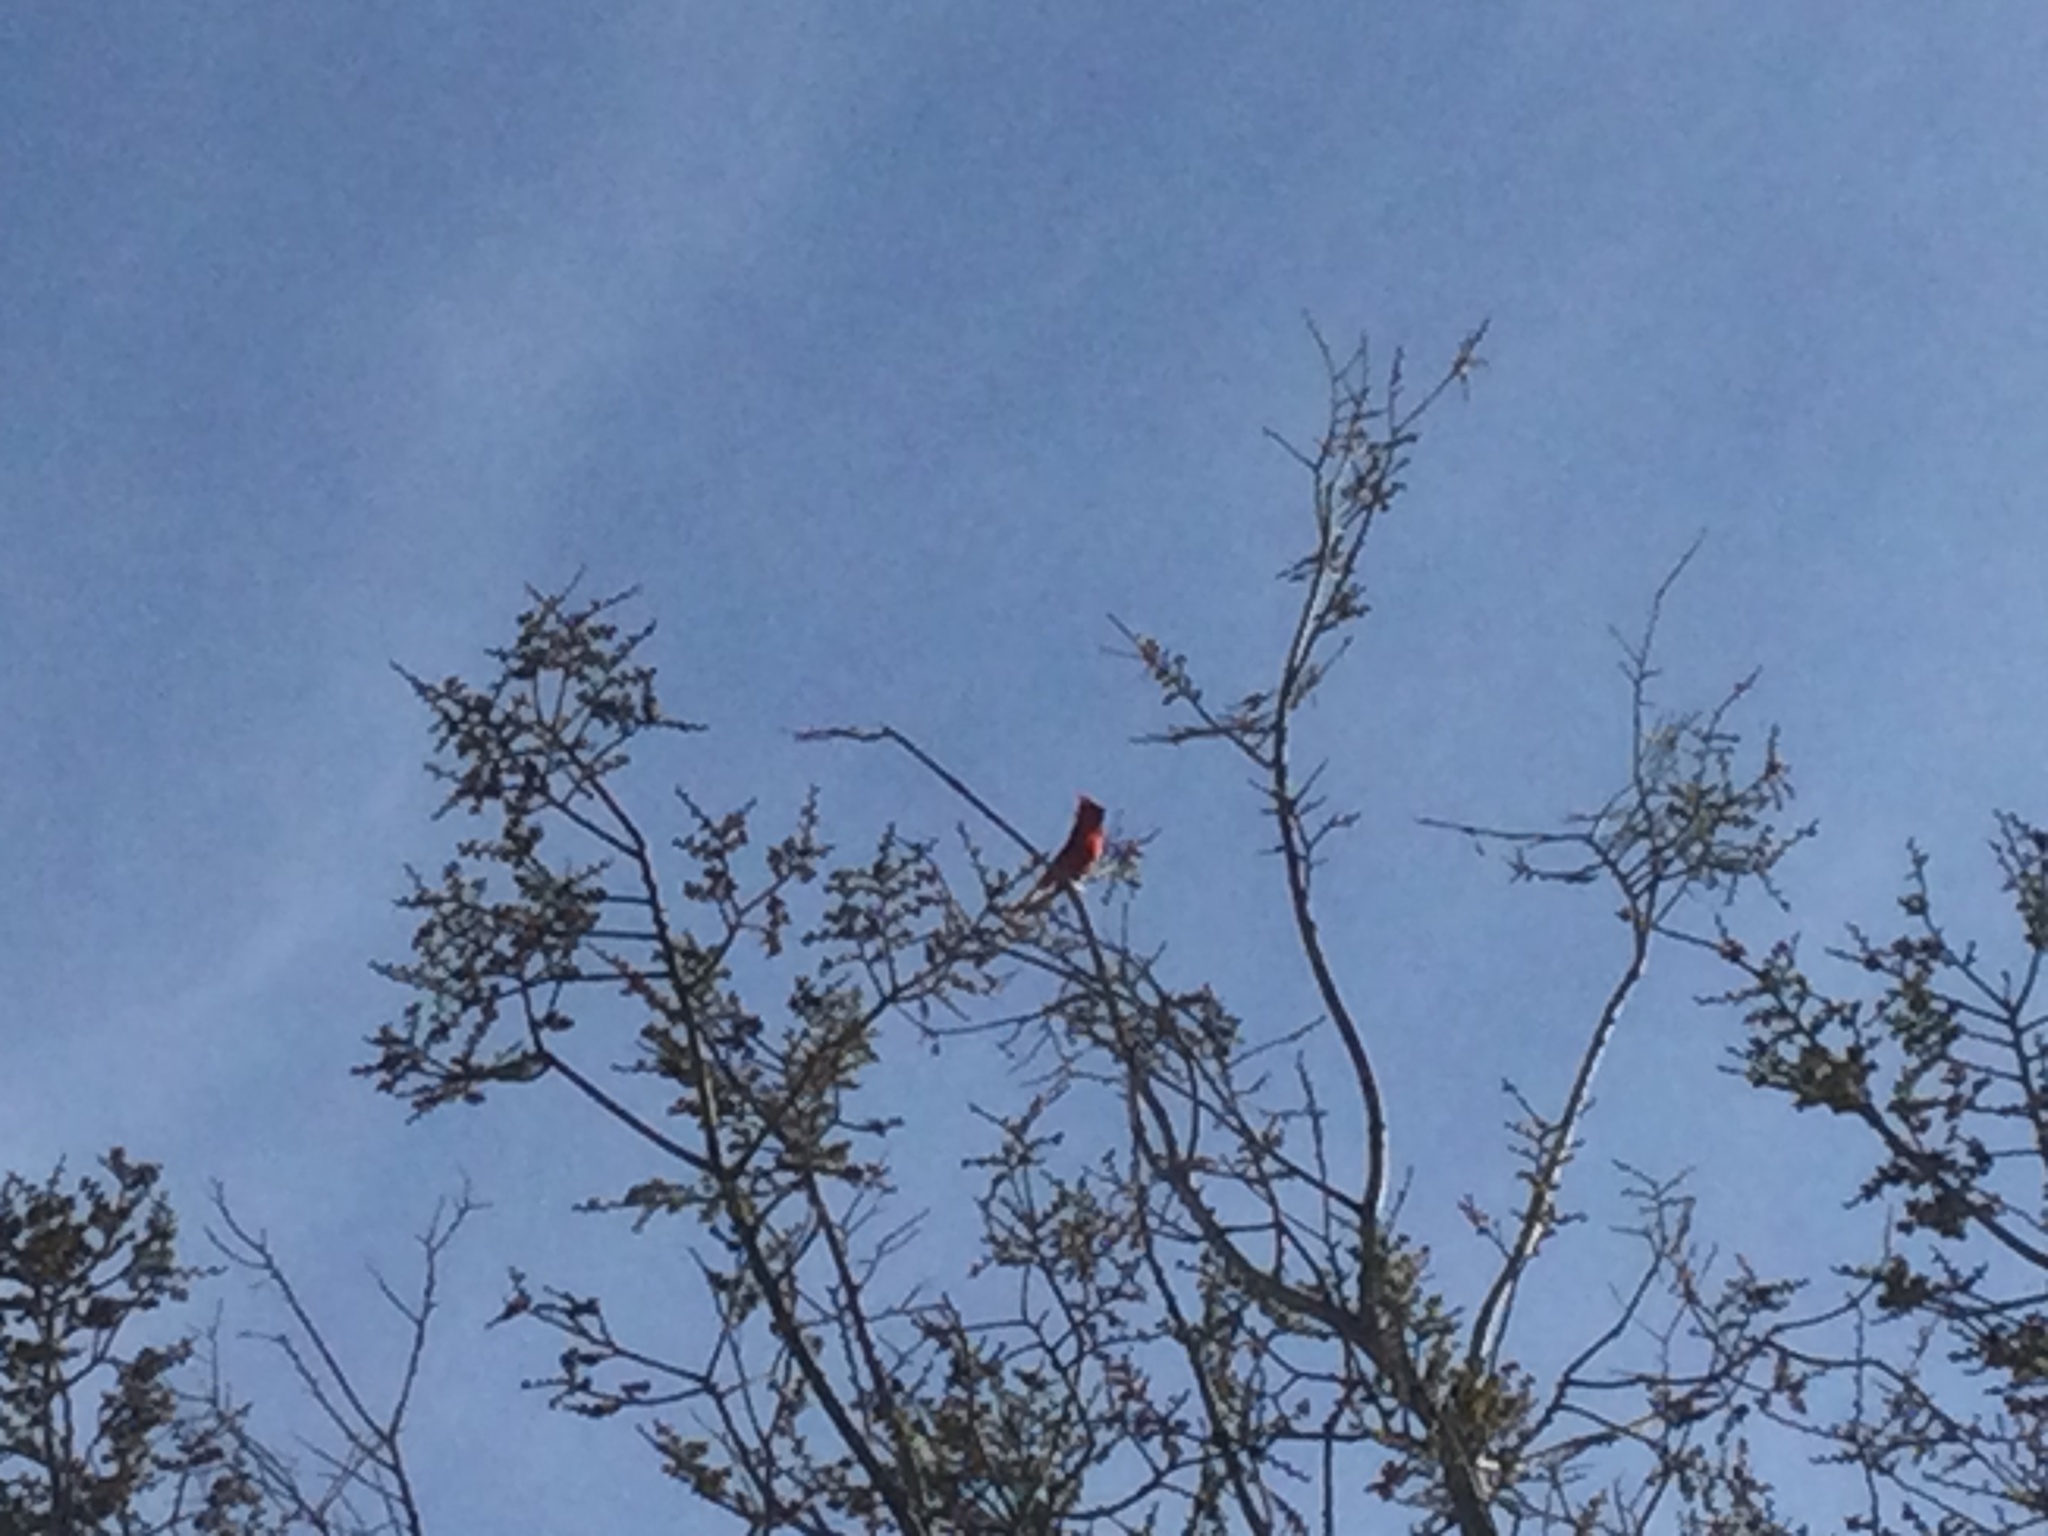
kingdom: Animalia
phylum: Chordata
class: Aves
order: Passeriformes
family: Cardinalidae
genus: Cardinalis
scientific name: Cardinalis cardinalis
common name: Northern cardinal
